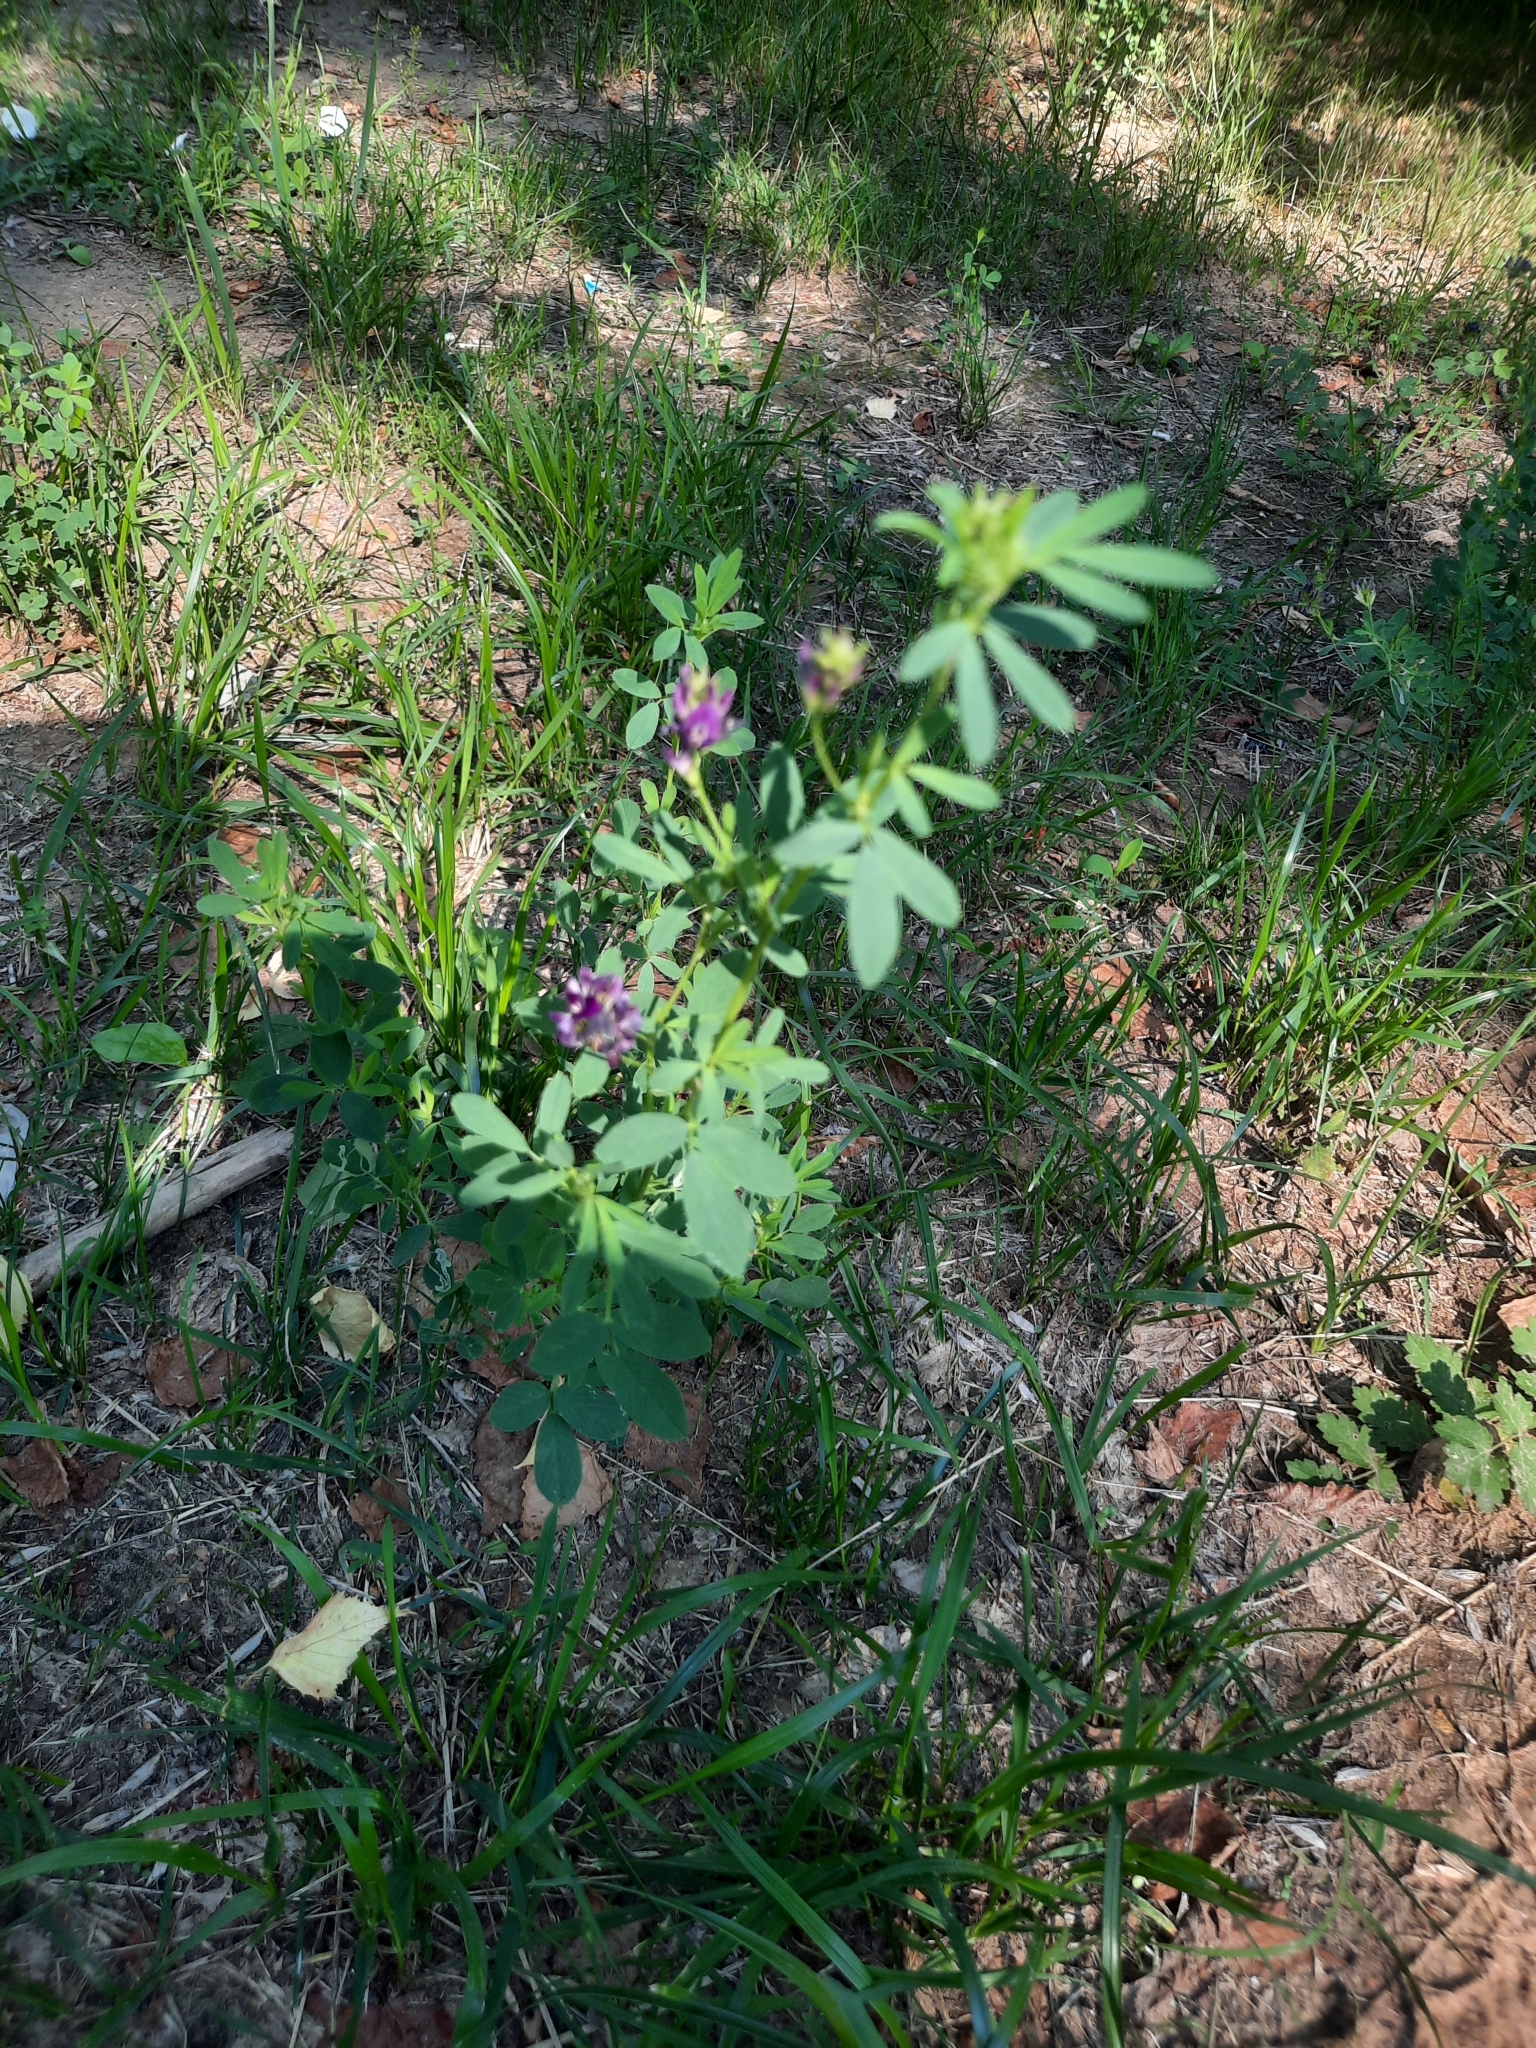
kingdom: Plantae
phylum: Tracheophyta
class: Magnoliopsida
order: Fabales
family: Fabaceae
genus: Medicago
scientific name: Medicago sativa
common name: Alfalfa
